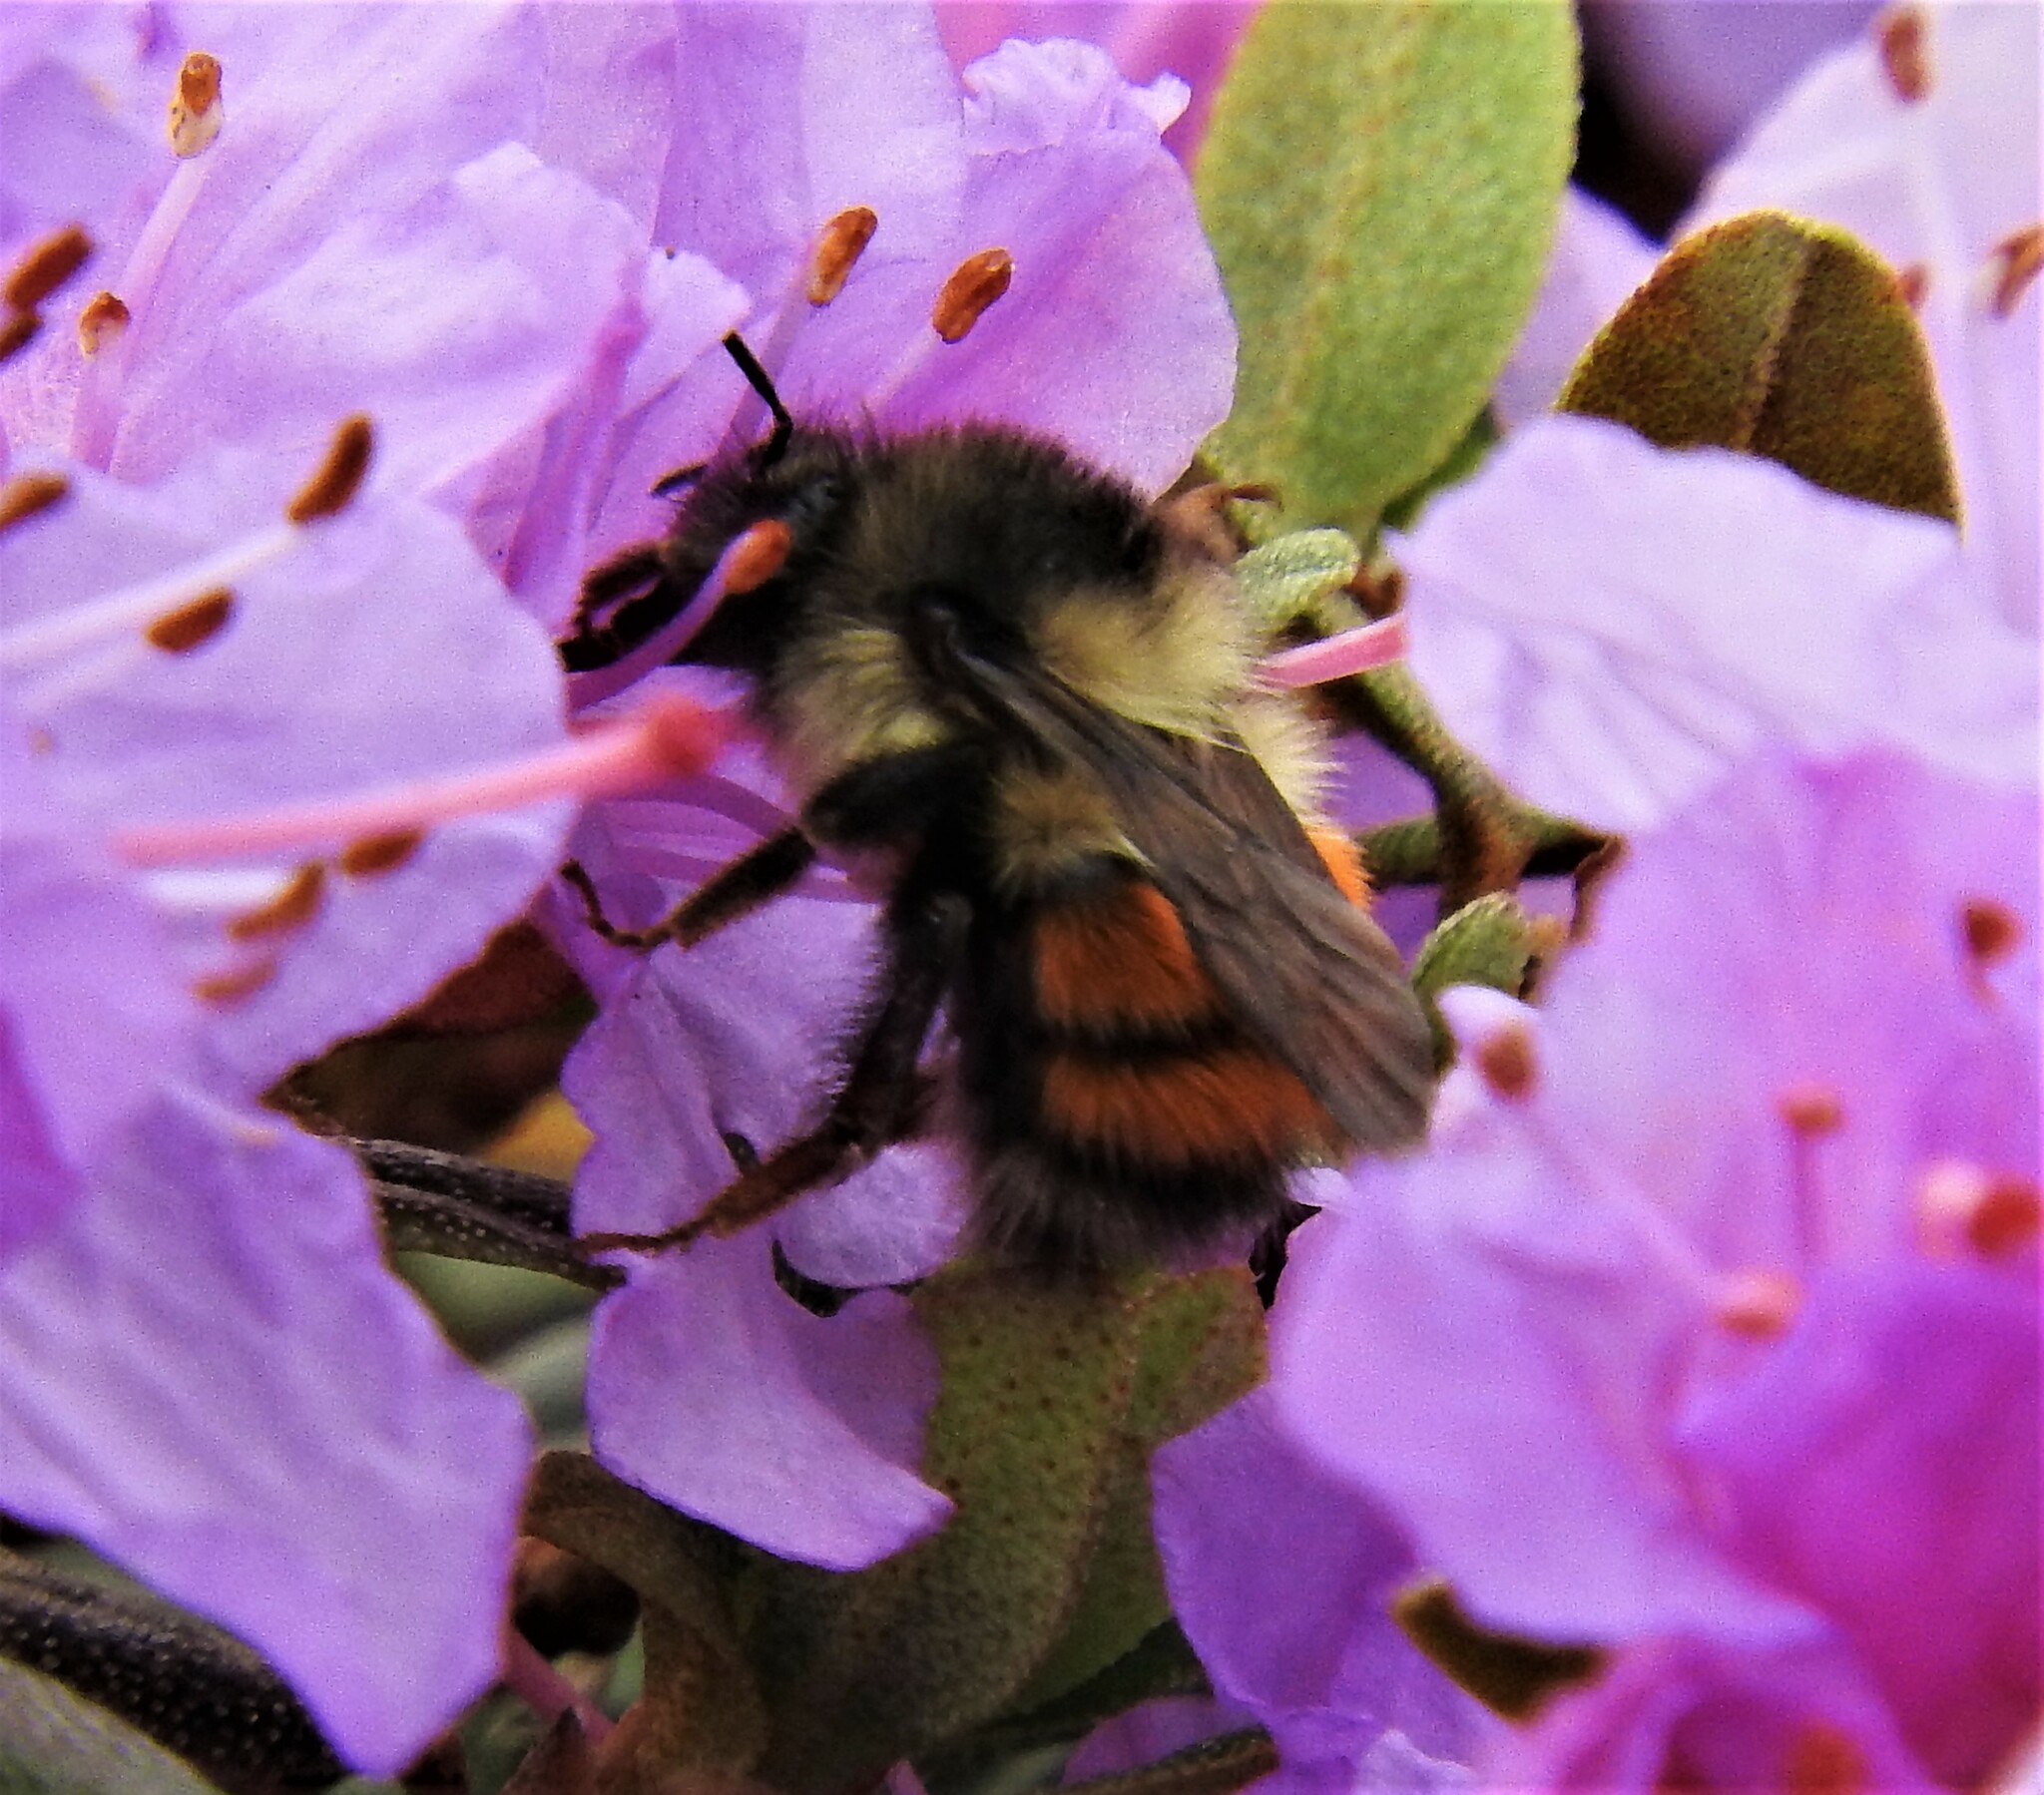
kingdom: Animalia
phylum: Arthropoda
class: Insecta
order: Hymenoptera
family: Apidae
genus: Bombus
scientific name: Bombus melanopygus
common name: Black tail bumble bee
